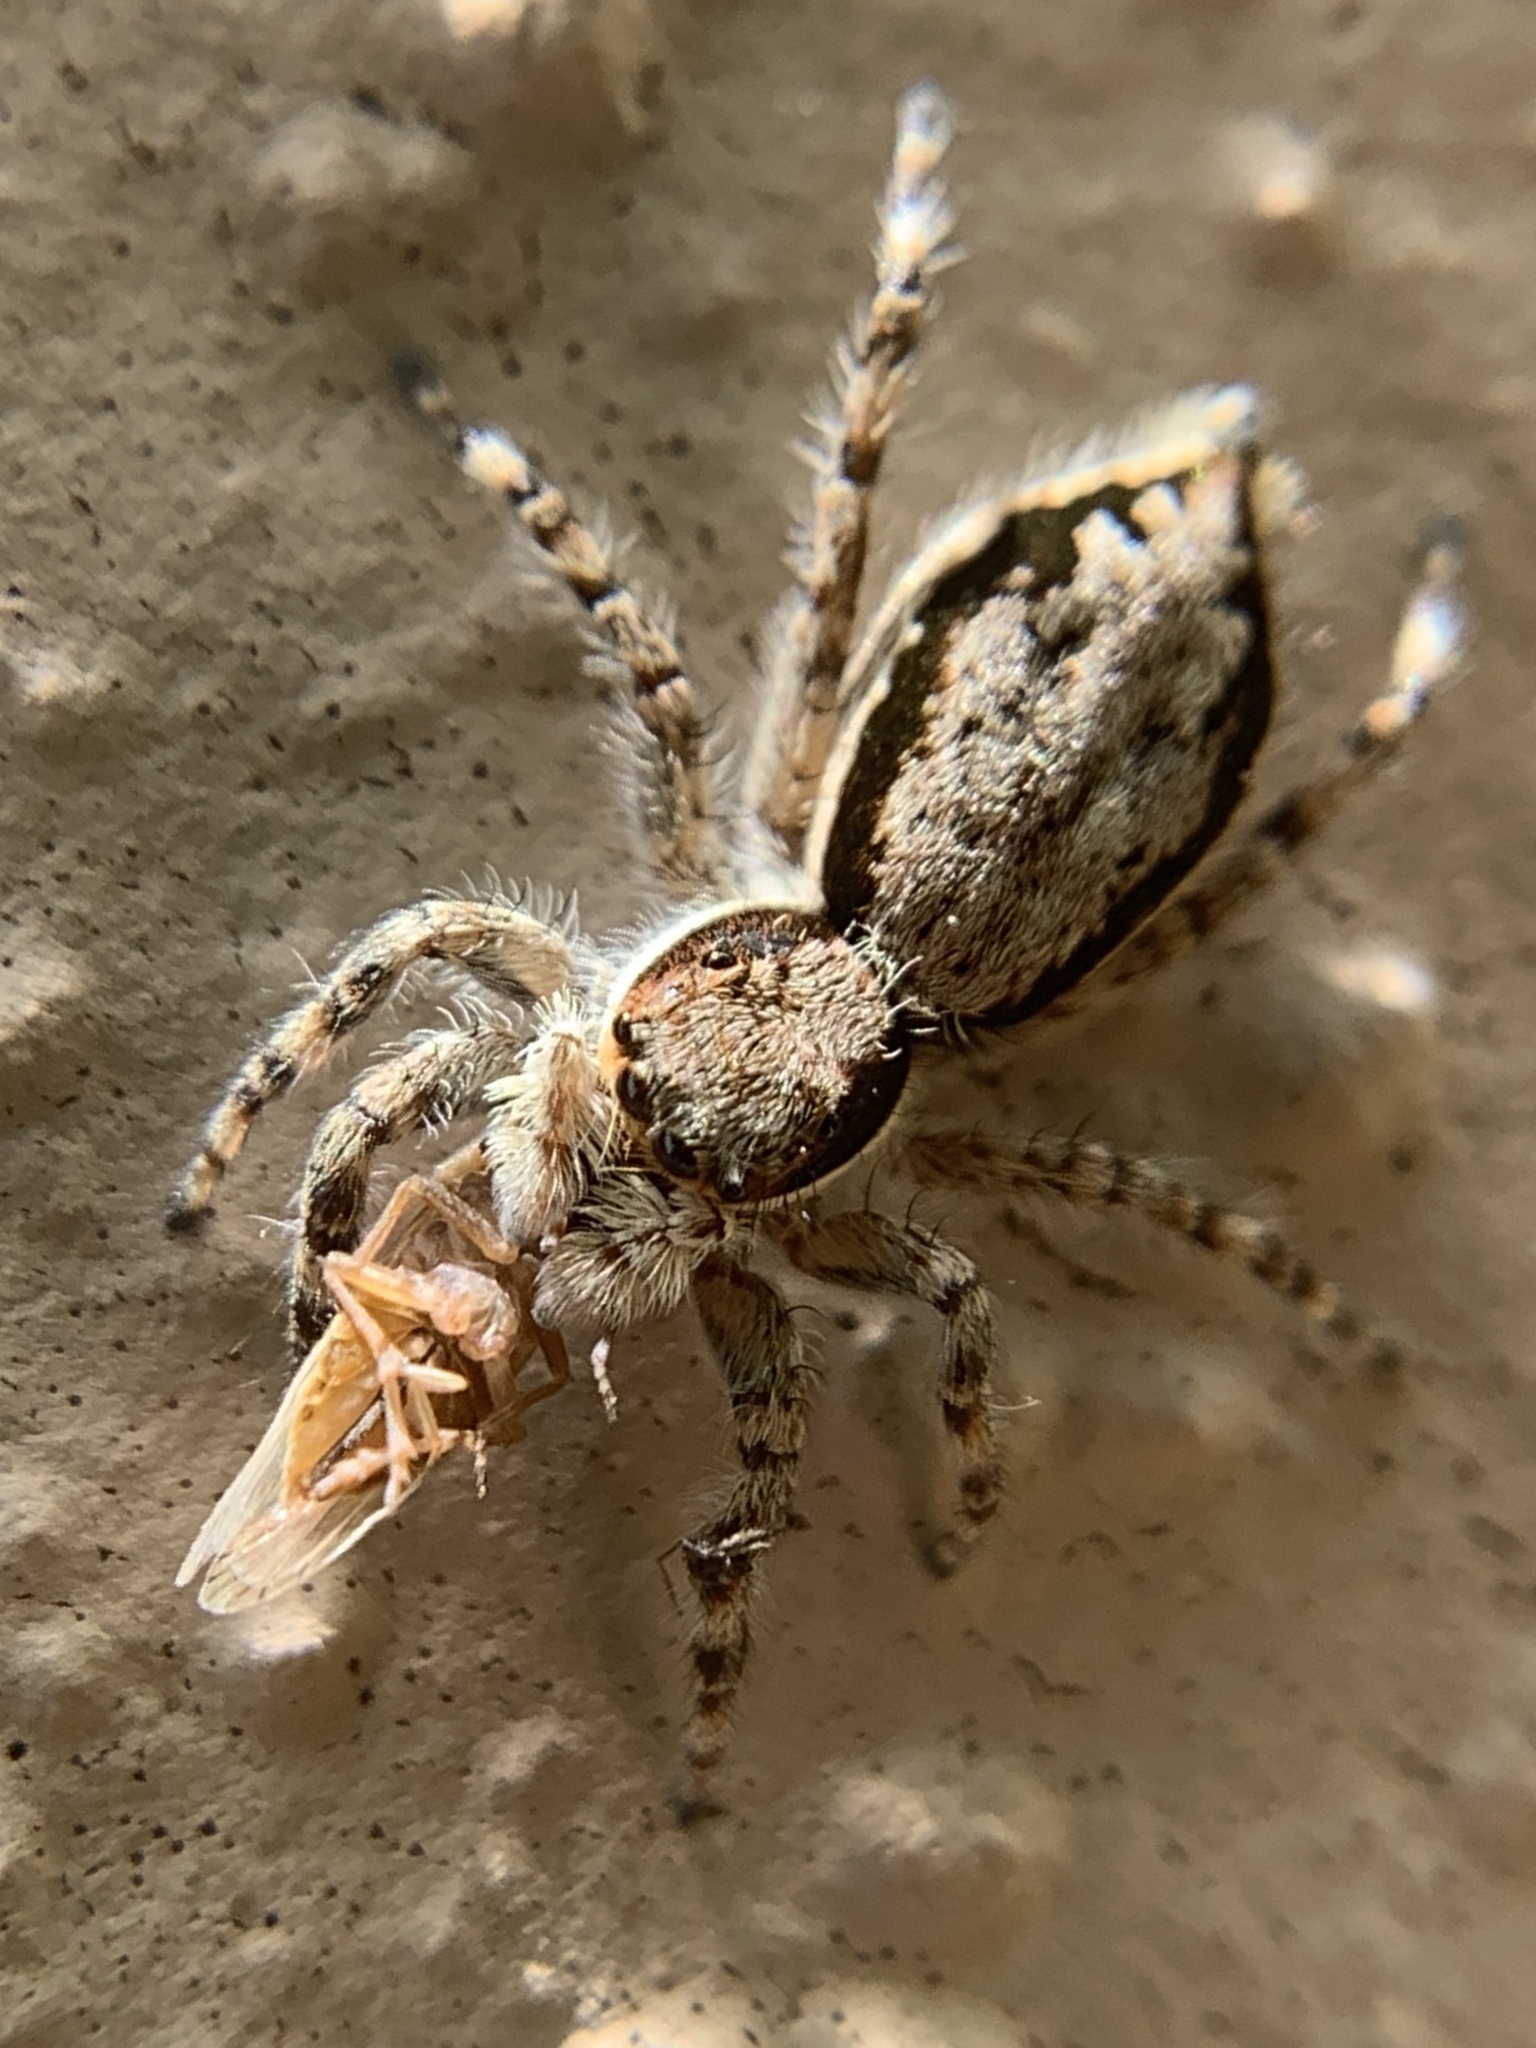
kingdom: Animalia
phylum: Arthropoda
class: Arachnida
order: Araneae
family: Salticidae
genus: Menemerus
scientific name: Menemerus bivittatus
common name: Gray wall jumper
